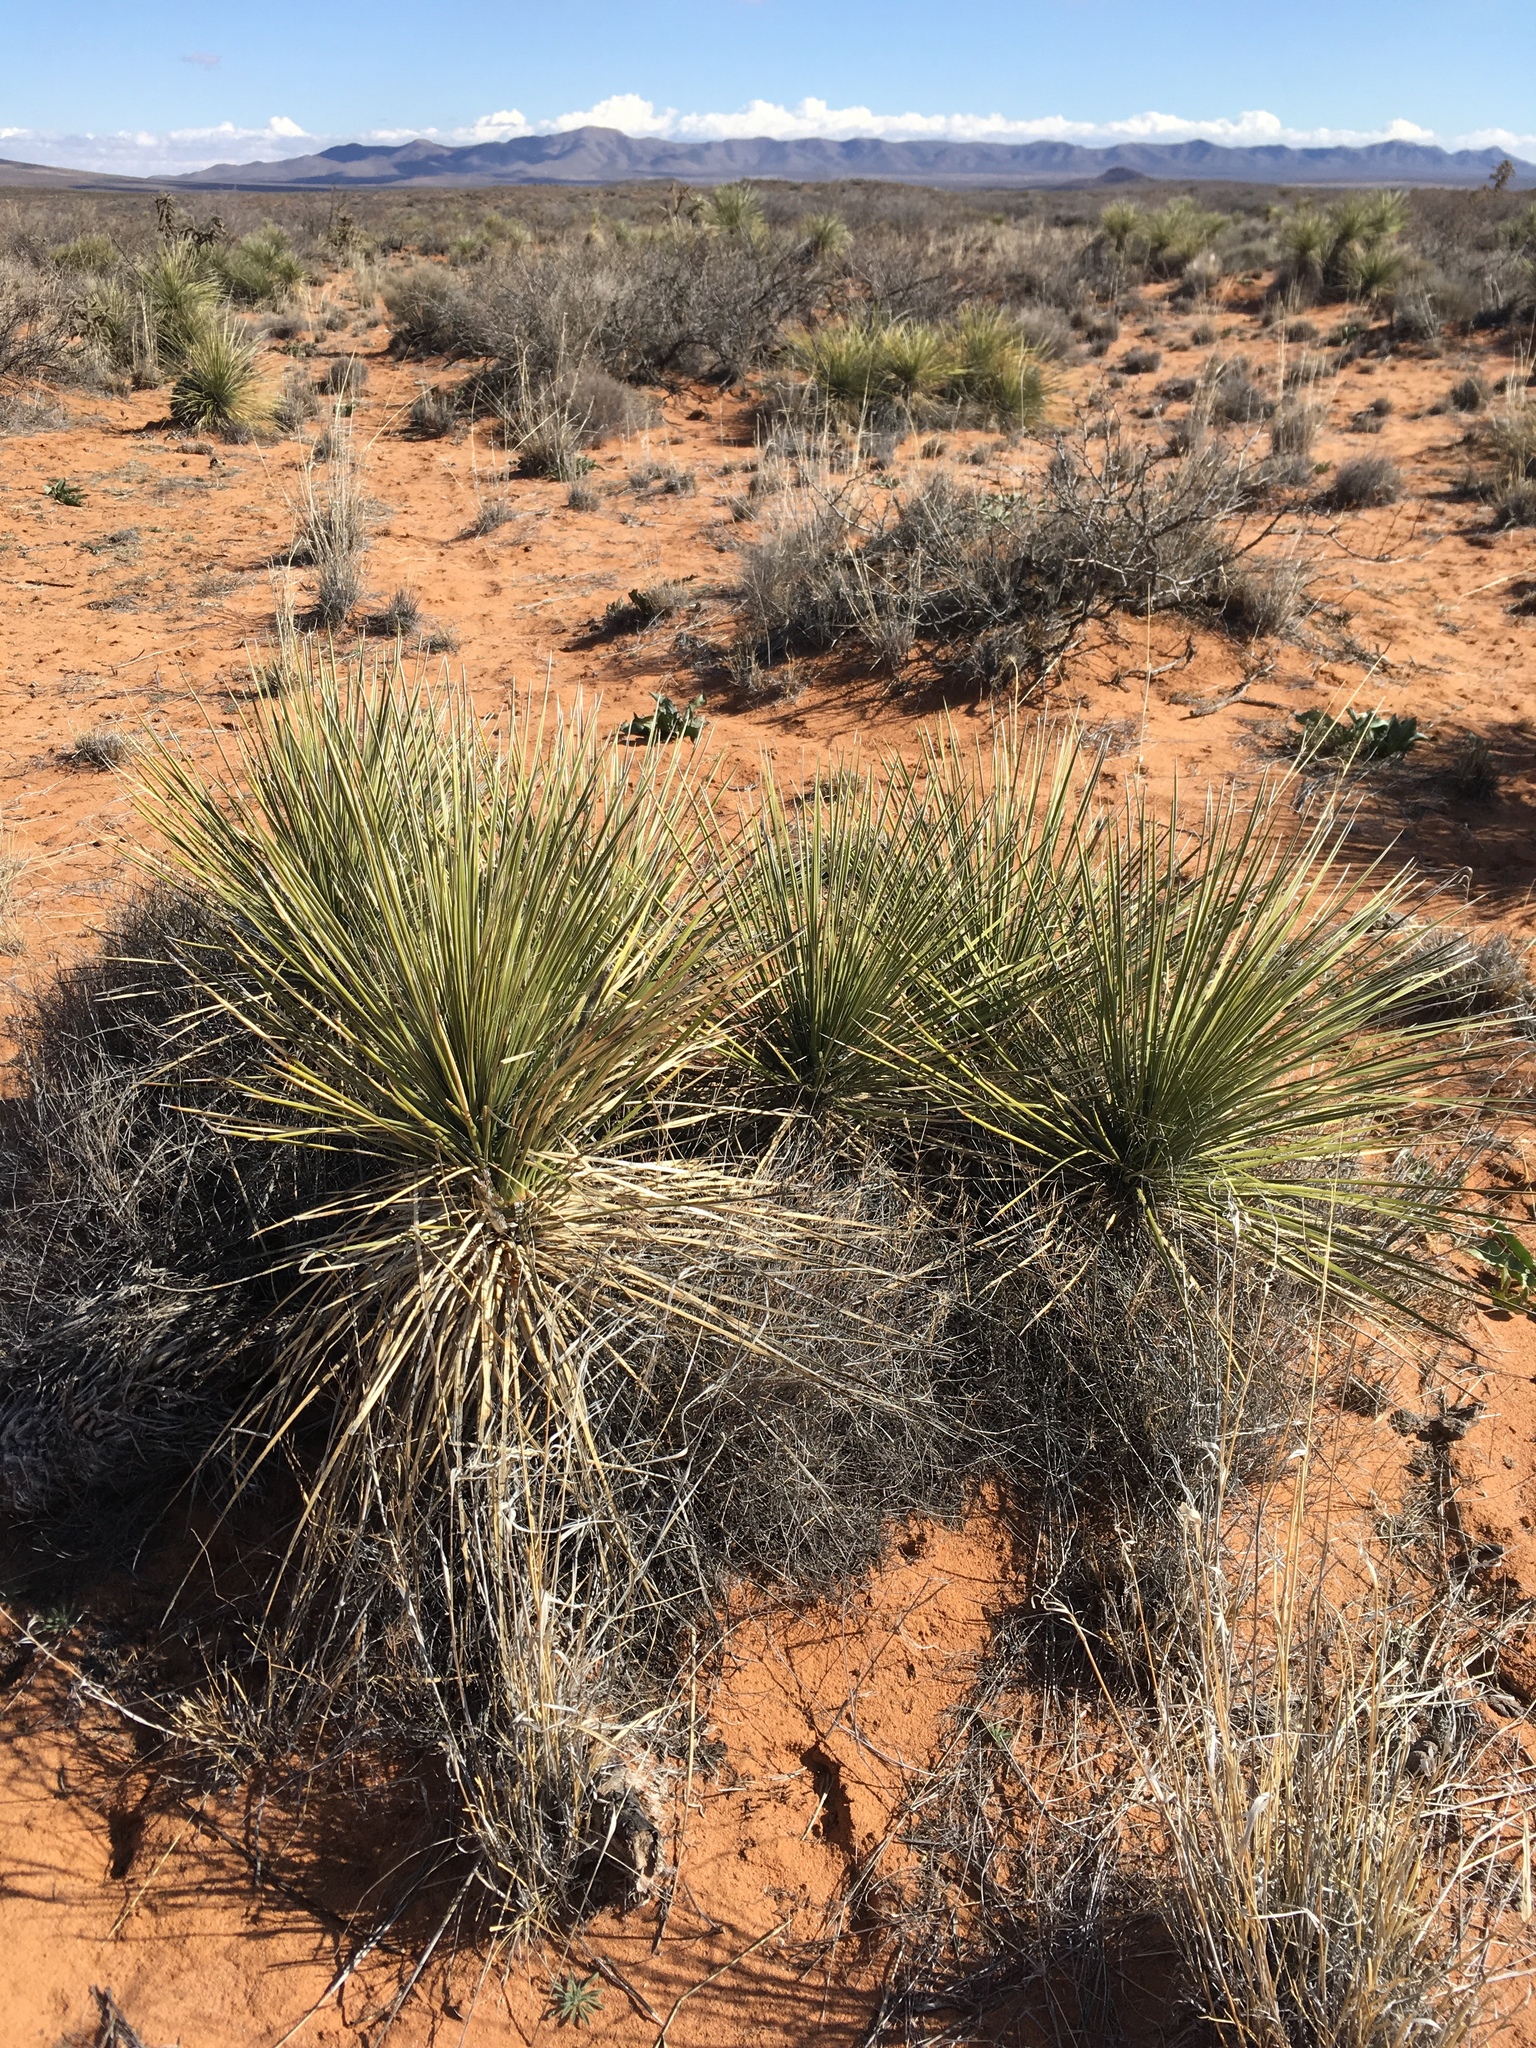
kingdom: Plantae
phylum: Tracheophyta
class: Liliopsida
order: Asparagales
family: Asparagaceae
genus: Yucca
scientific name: Yucca elata
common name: Palmella
